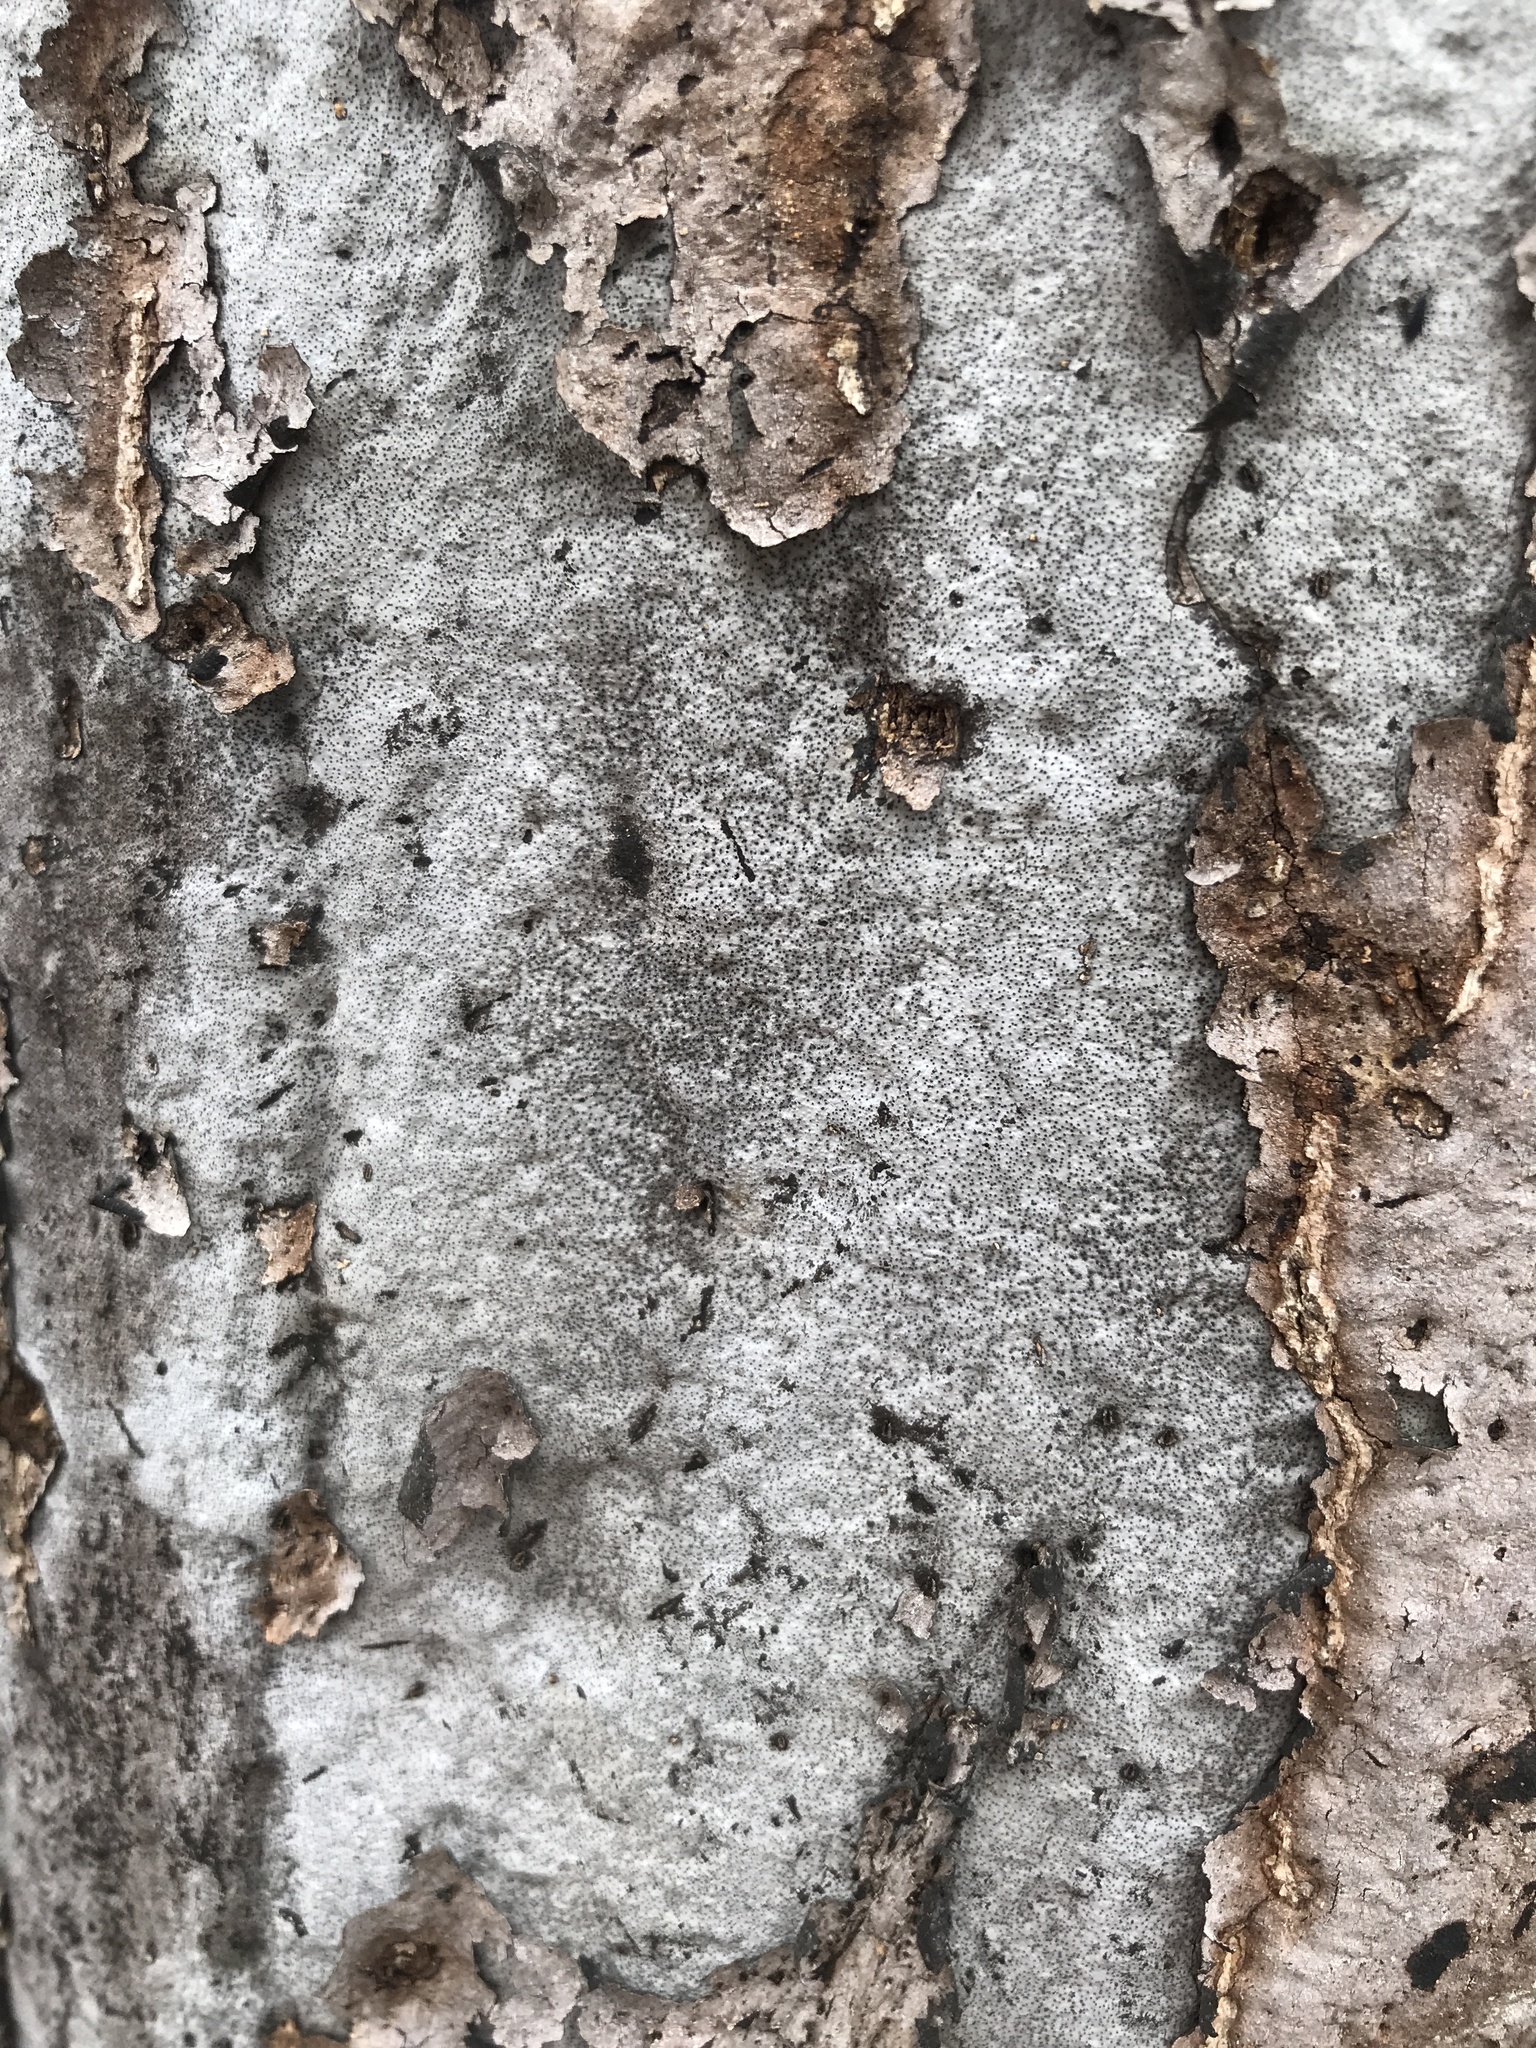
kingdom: Fungi
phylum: Ascomycota
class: Sordariomycetes
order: Xylariales
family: Graphostromataceae
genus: Biscogniauxia
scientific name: Biscogniauxia atropunctata
